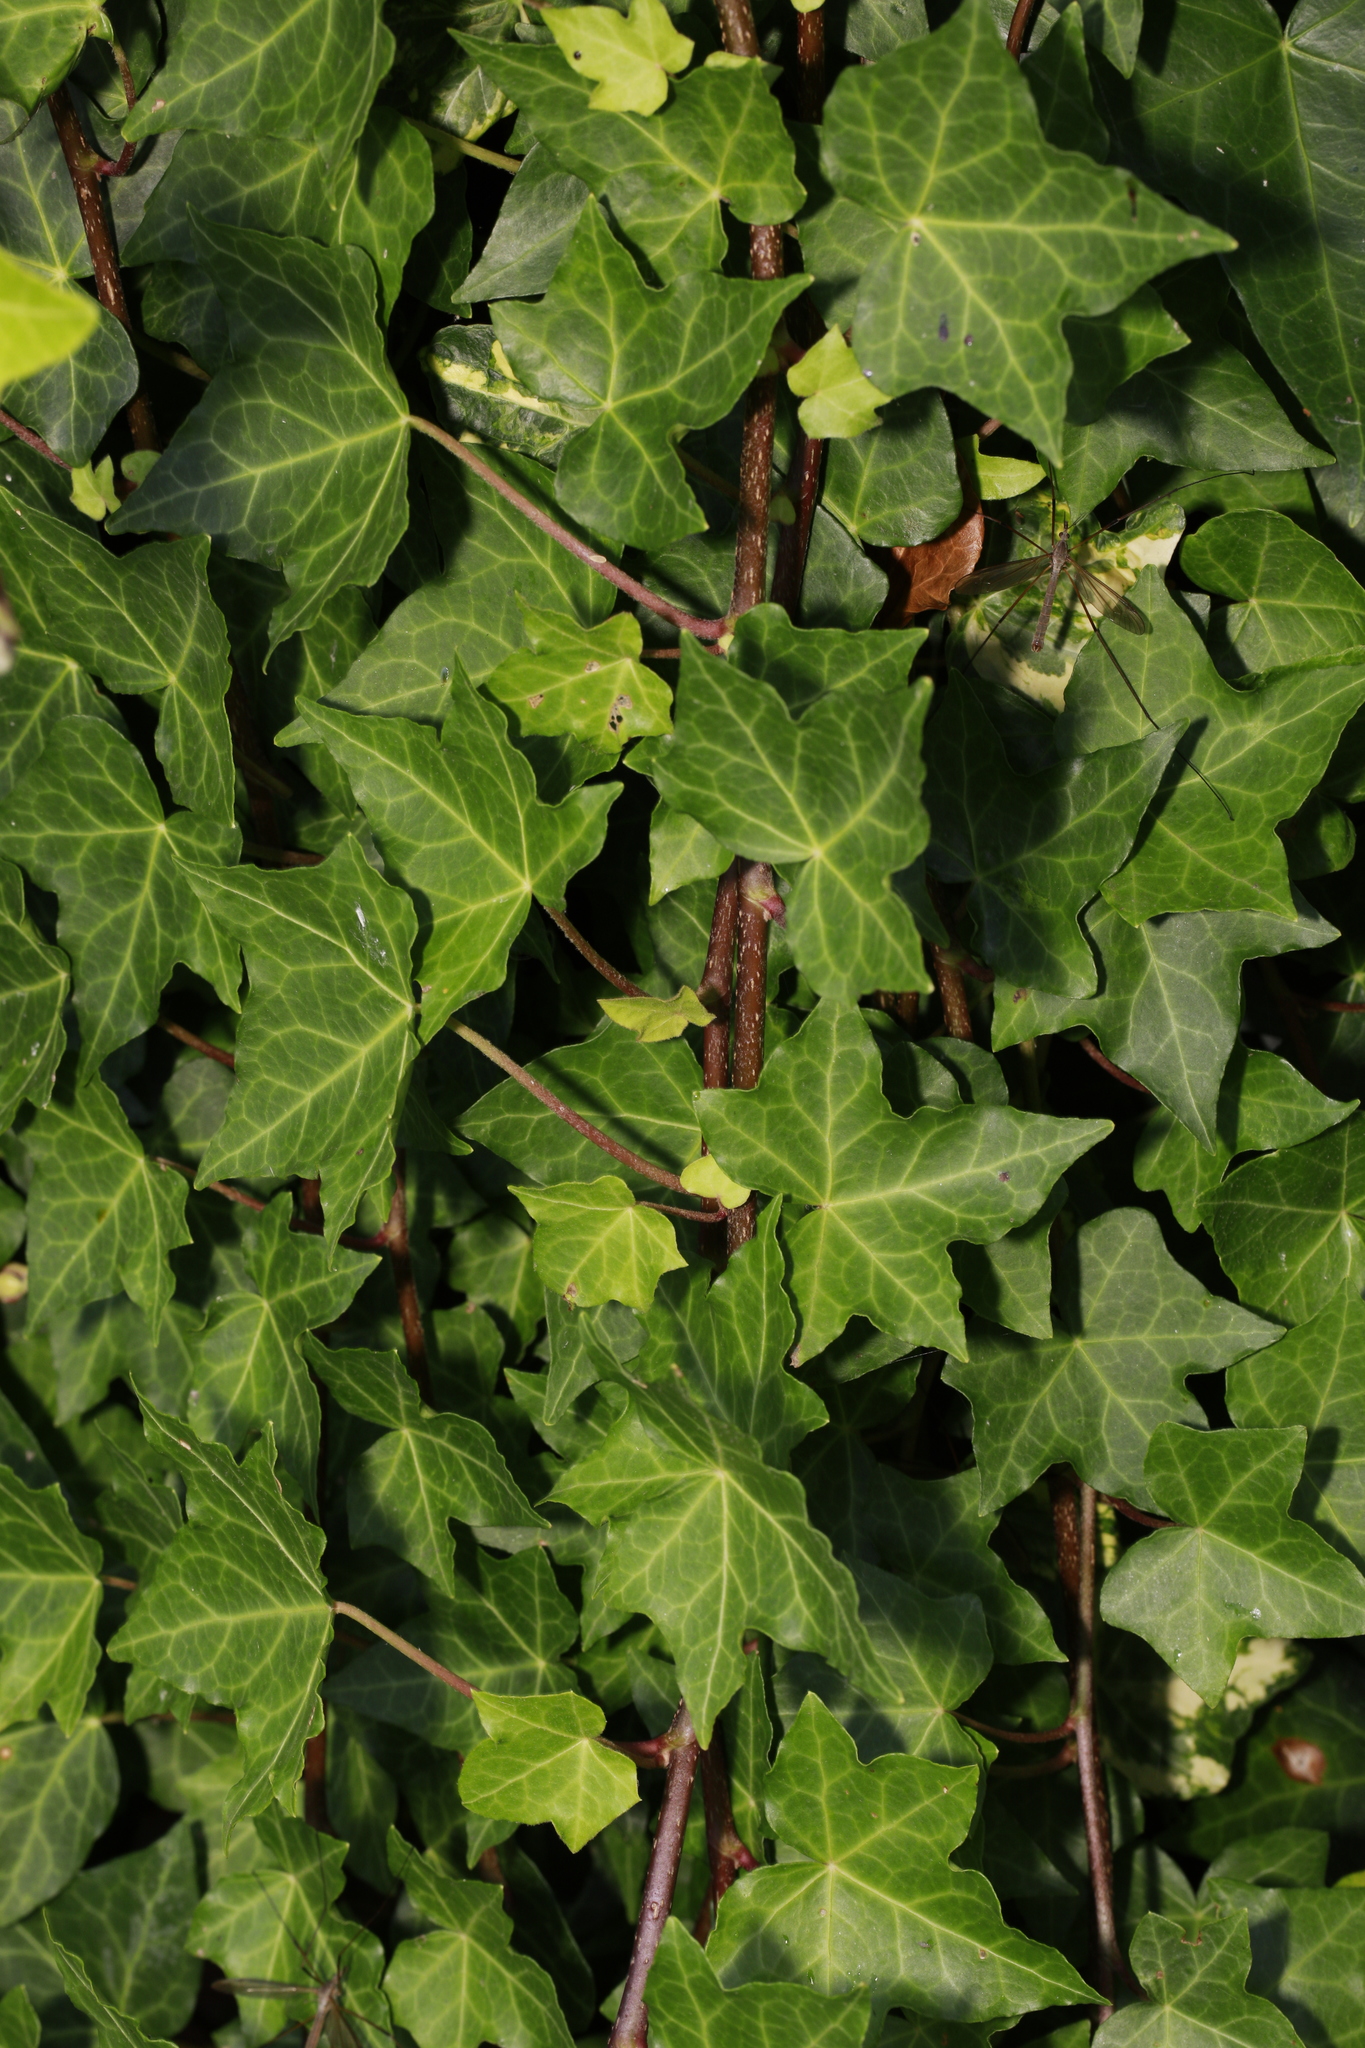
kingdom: Plantae
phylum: Tracheophyta
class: Magnoliopsida
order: Apiales
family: Araliaceae
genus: Hedera
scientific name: Hedera helix
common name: Ivy
